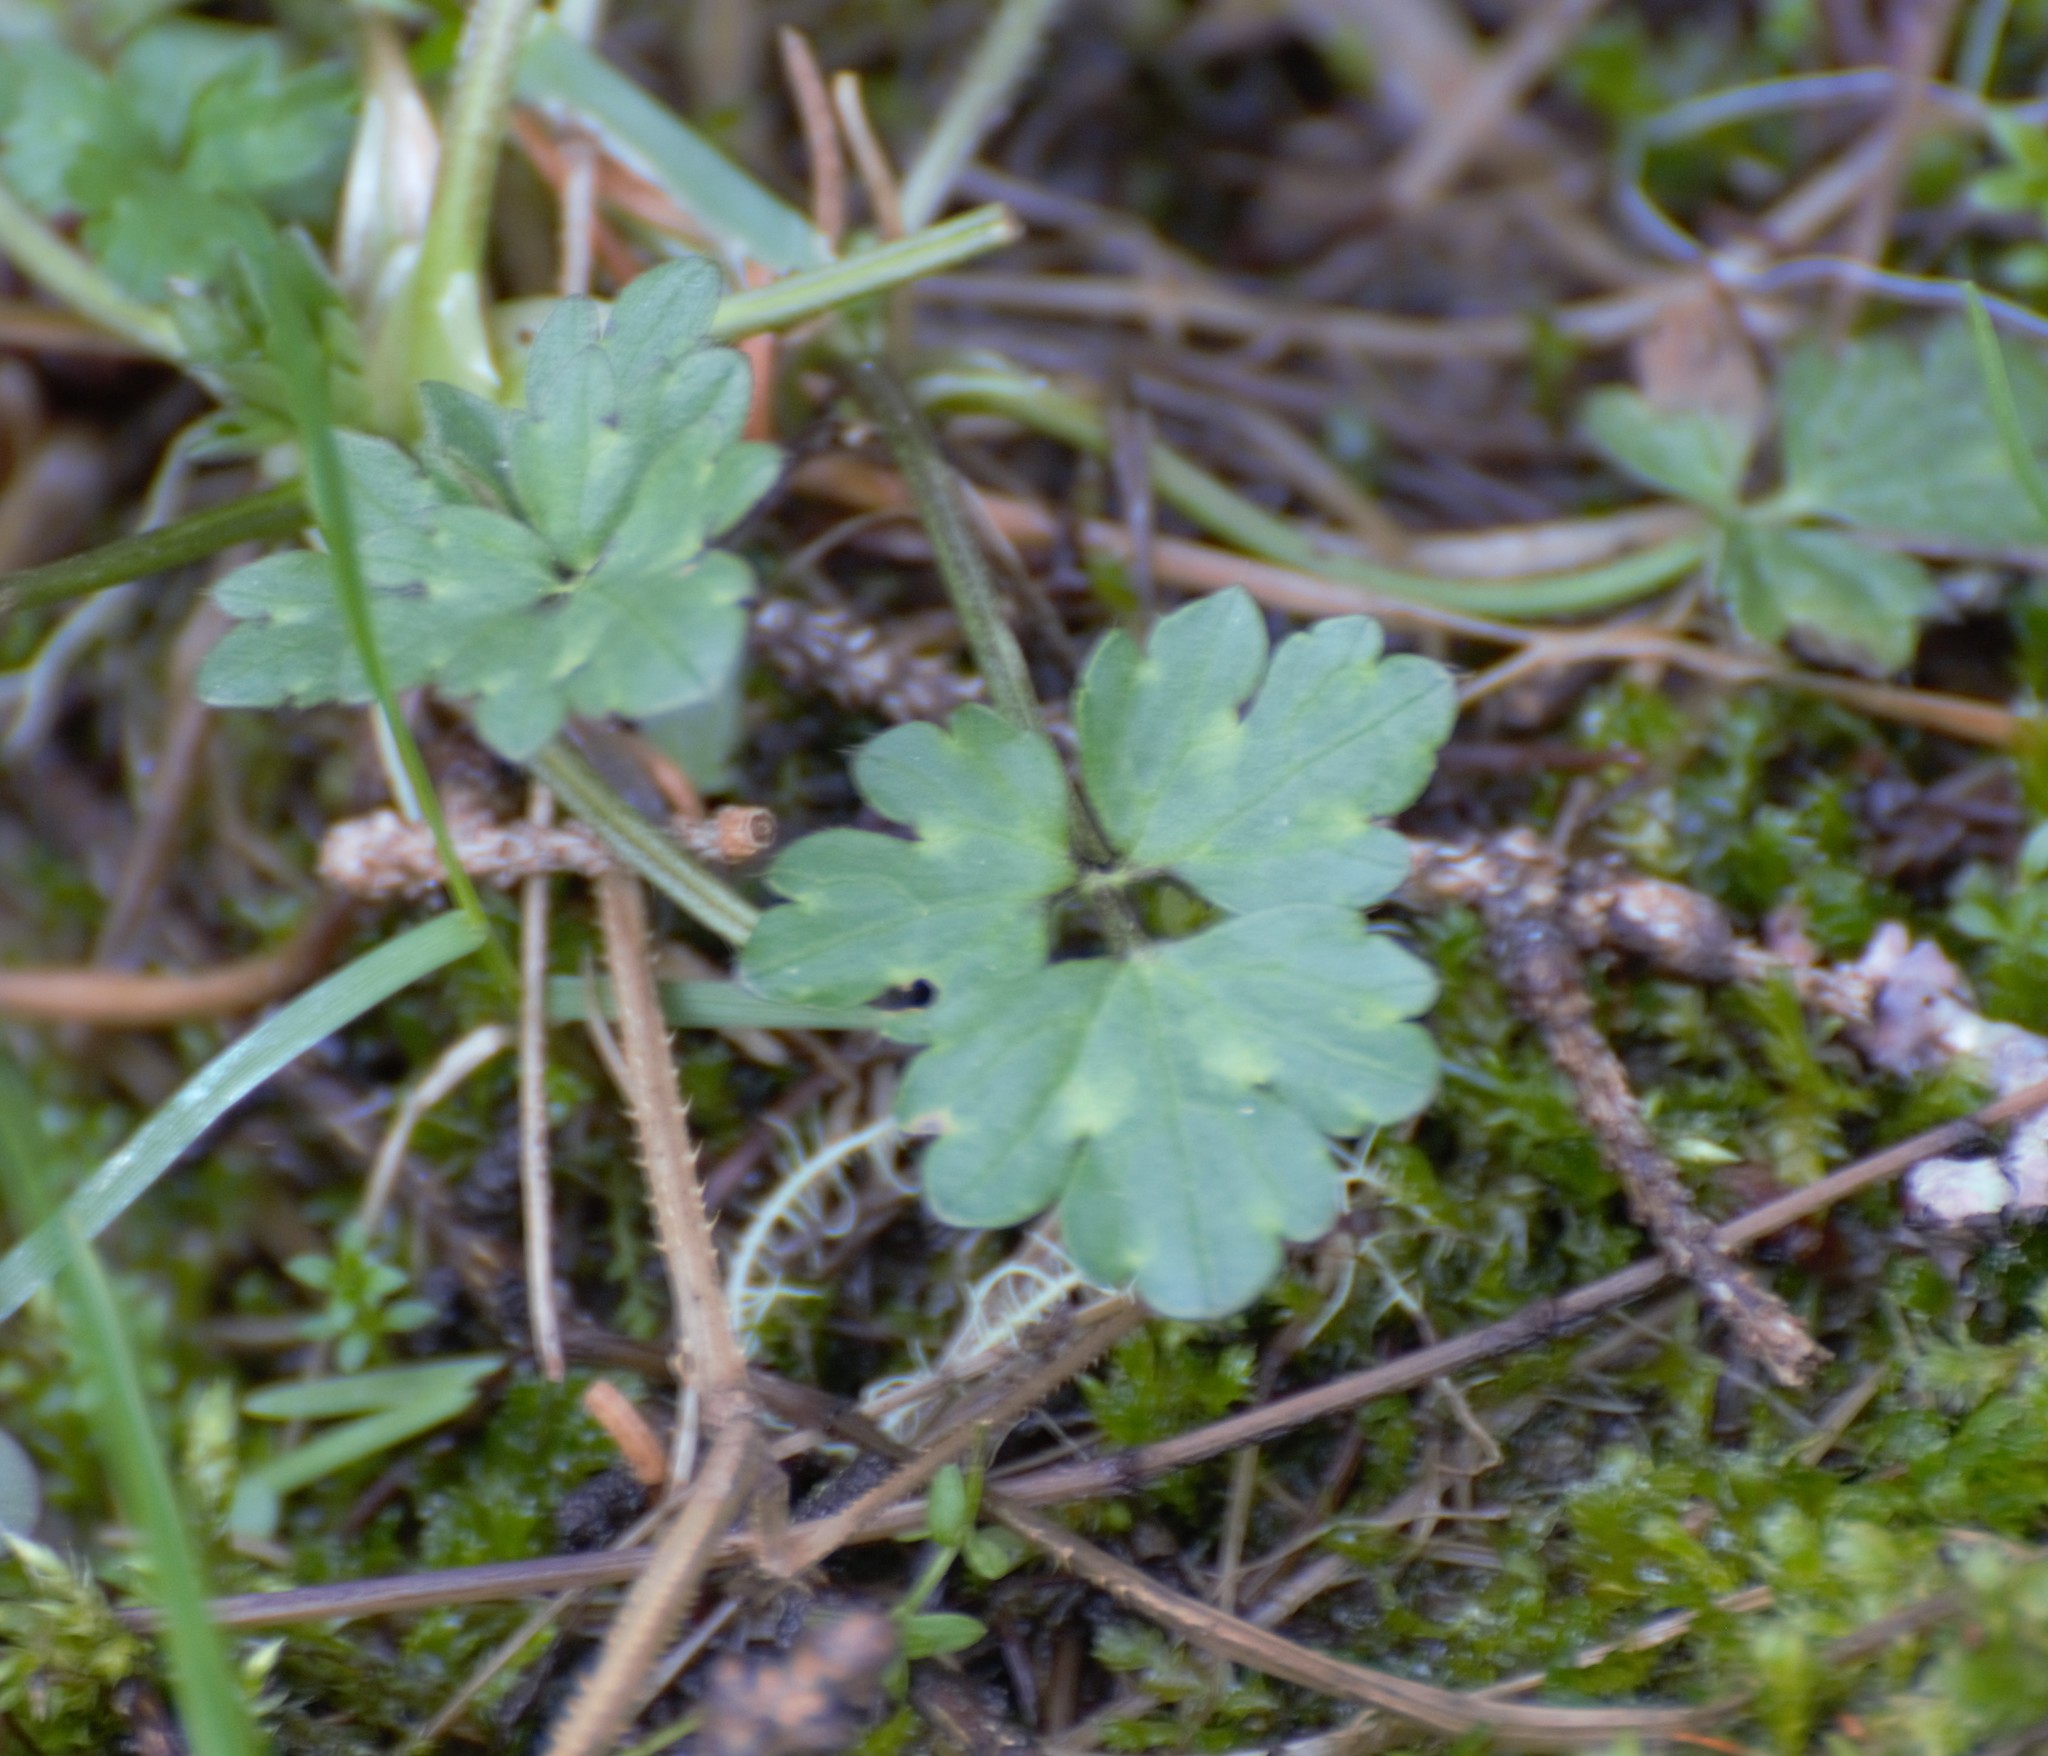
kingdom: Plantae
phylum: Tracheophyta
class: Magnoliopsida
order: Ranunculales
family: Ranunculaceae
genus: Ranunculus
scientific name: Ranunculus repens
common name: Creeping buttercup
